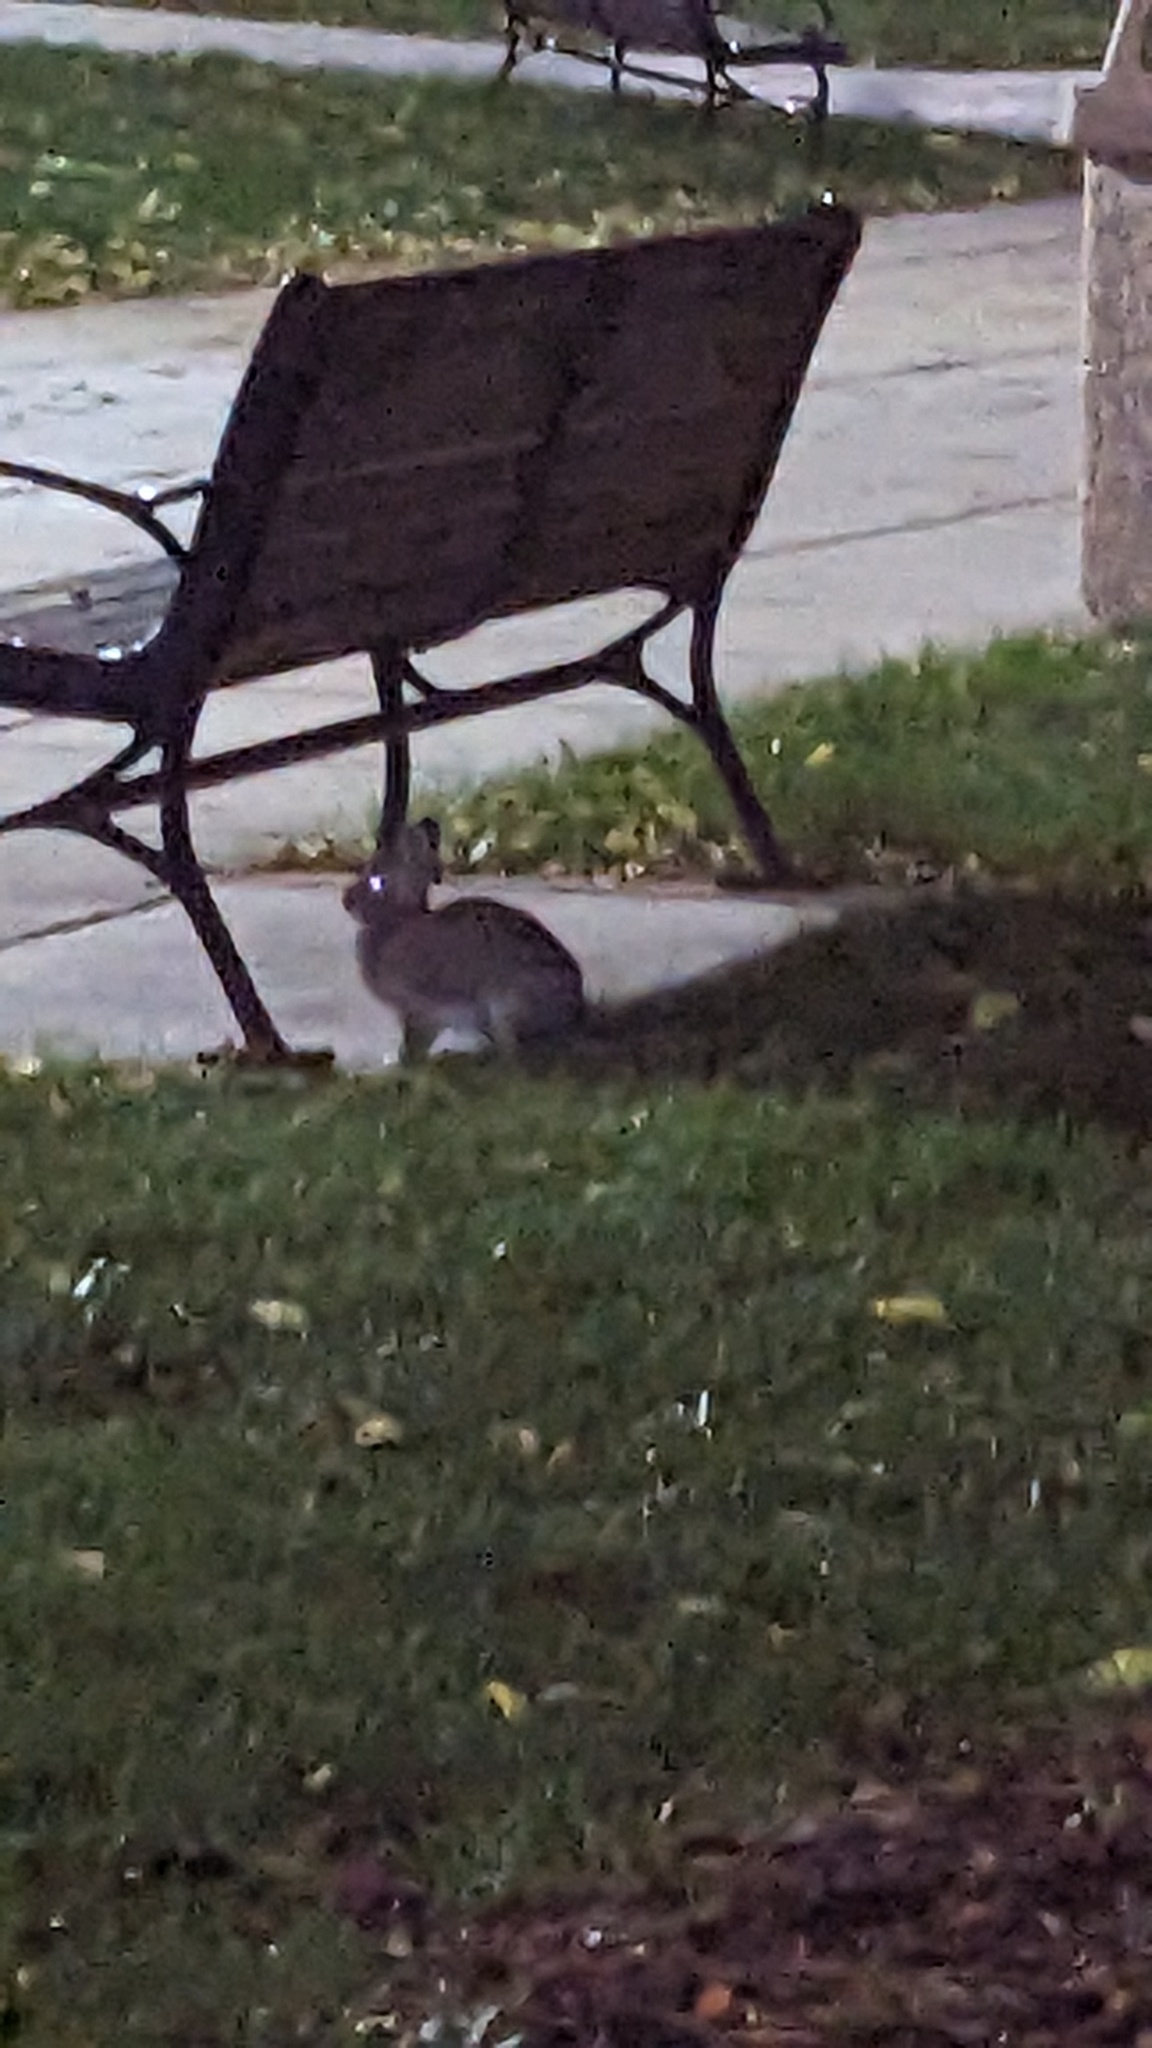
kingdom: Animalia
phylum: Chordata
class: Mammalia
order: Lagomorpha
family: Leporidae
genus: Sylvilagus
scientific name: Sylvilagus floridanus
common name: Eastern cottontail
